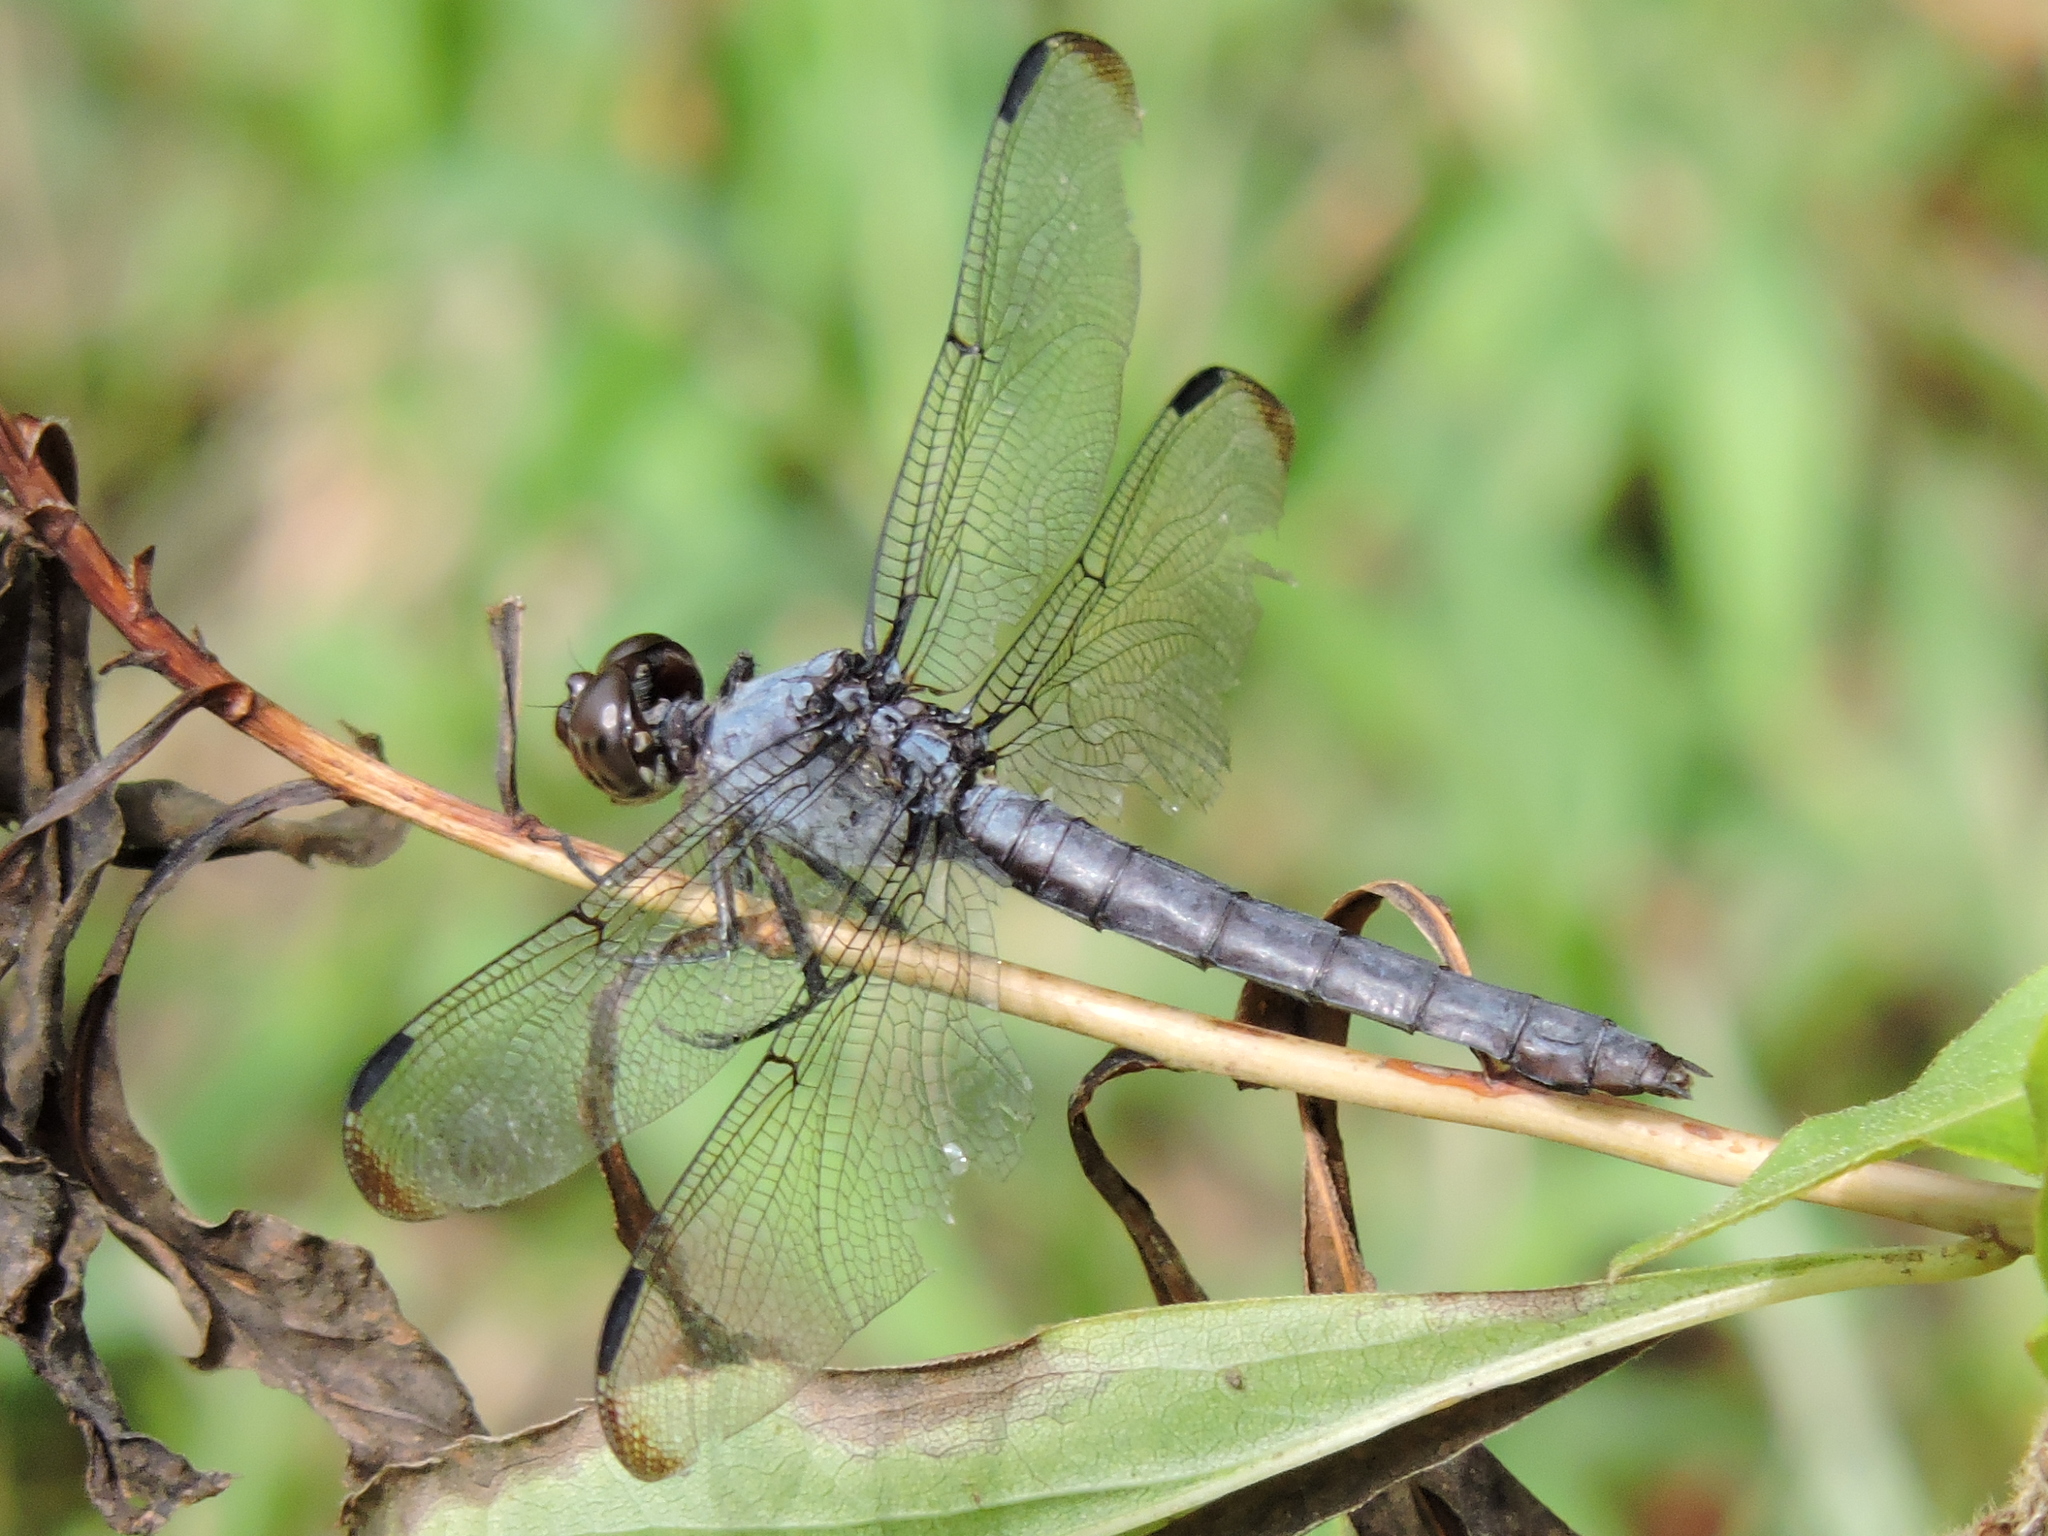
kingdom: Animalia
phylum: Arthropoda
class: Insecta
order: Odonata
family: Libellulidae
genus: Libellula
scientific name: Libellula incesta
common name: Slaty skimmer
